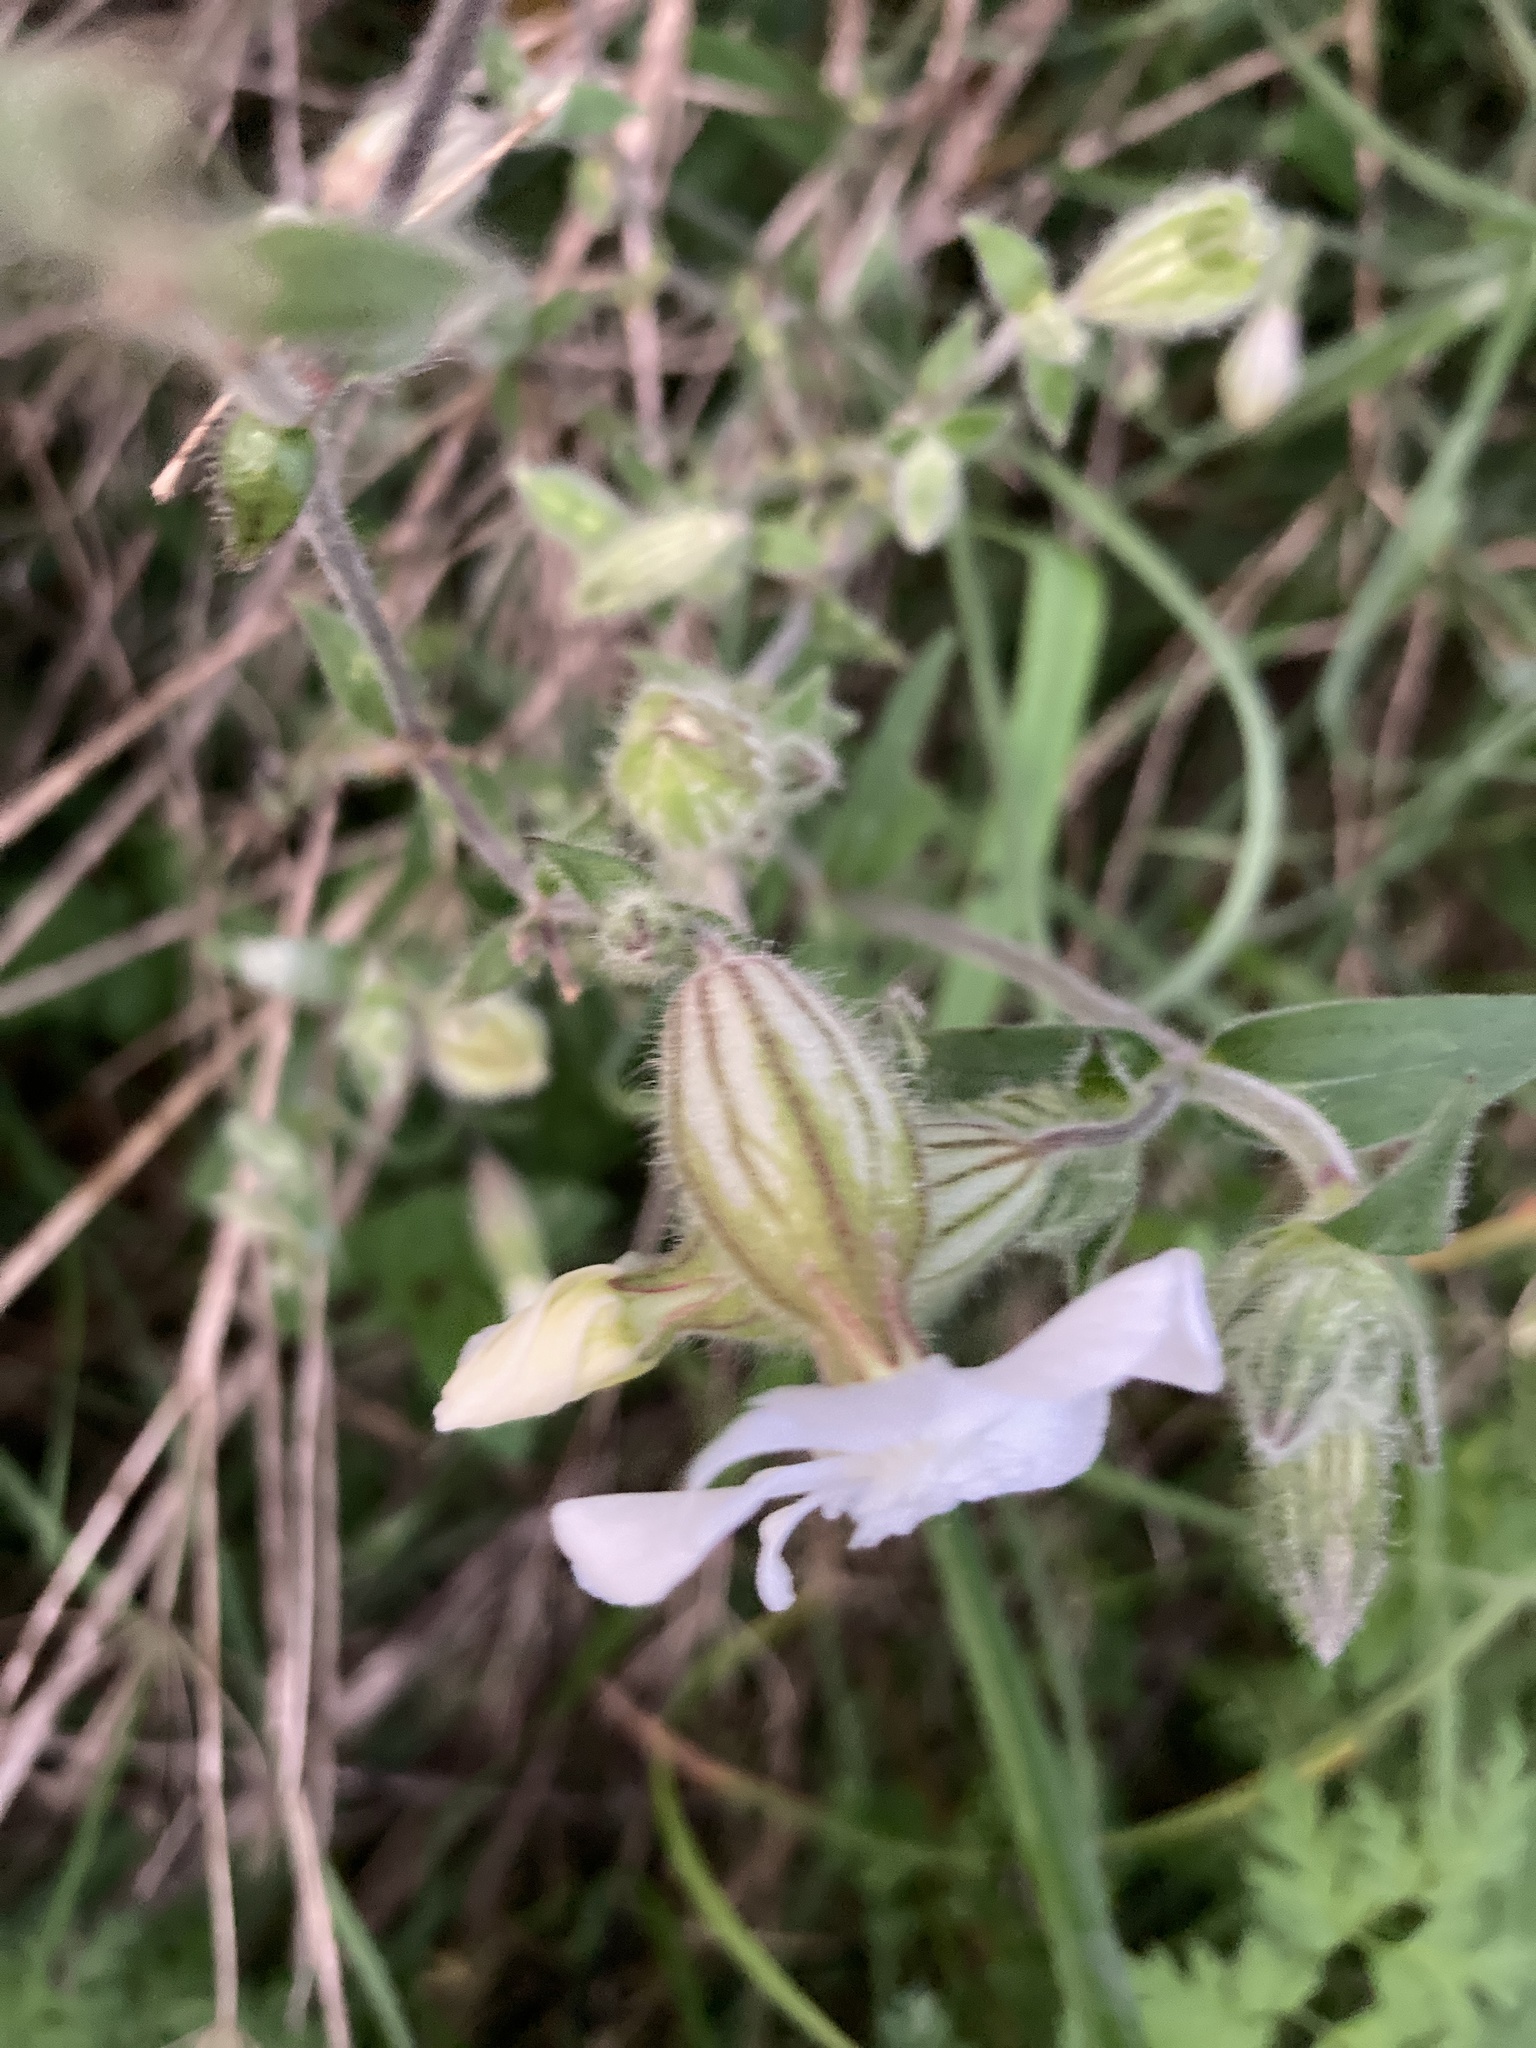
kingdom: Plantae
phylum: Tracheophyta
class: Magnoliopsida
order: Caryophyllales
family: Caryophyllaceae
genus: Silene
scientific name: Silene latifolia
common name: White campion
